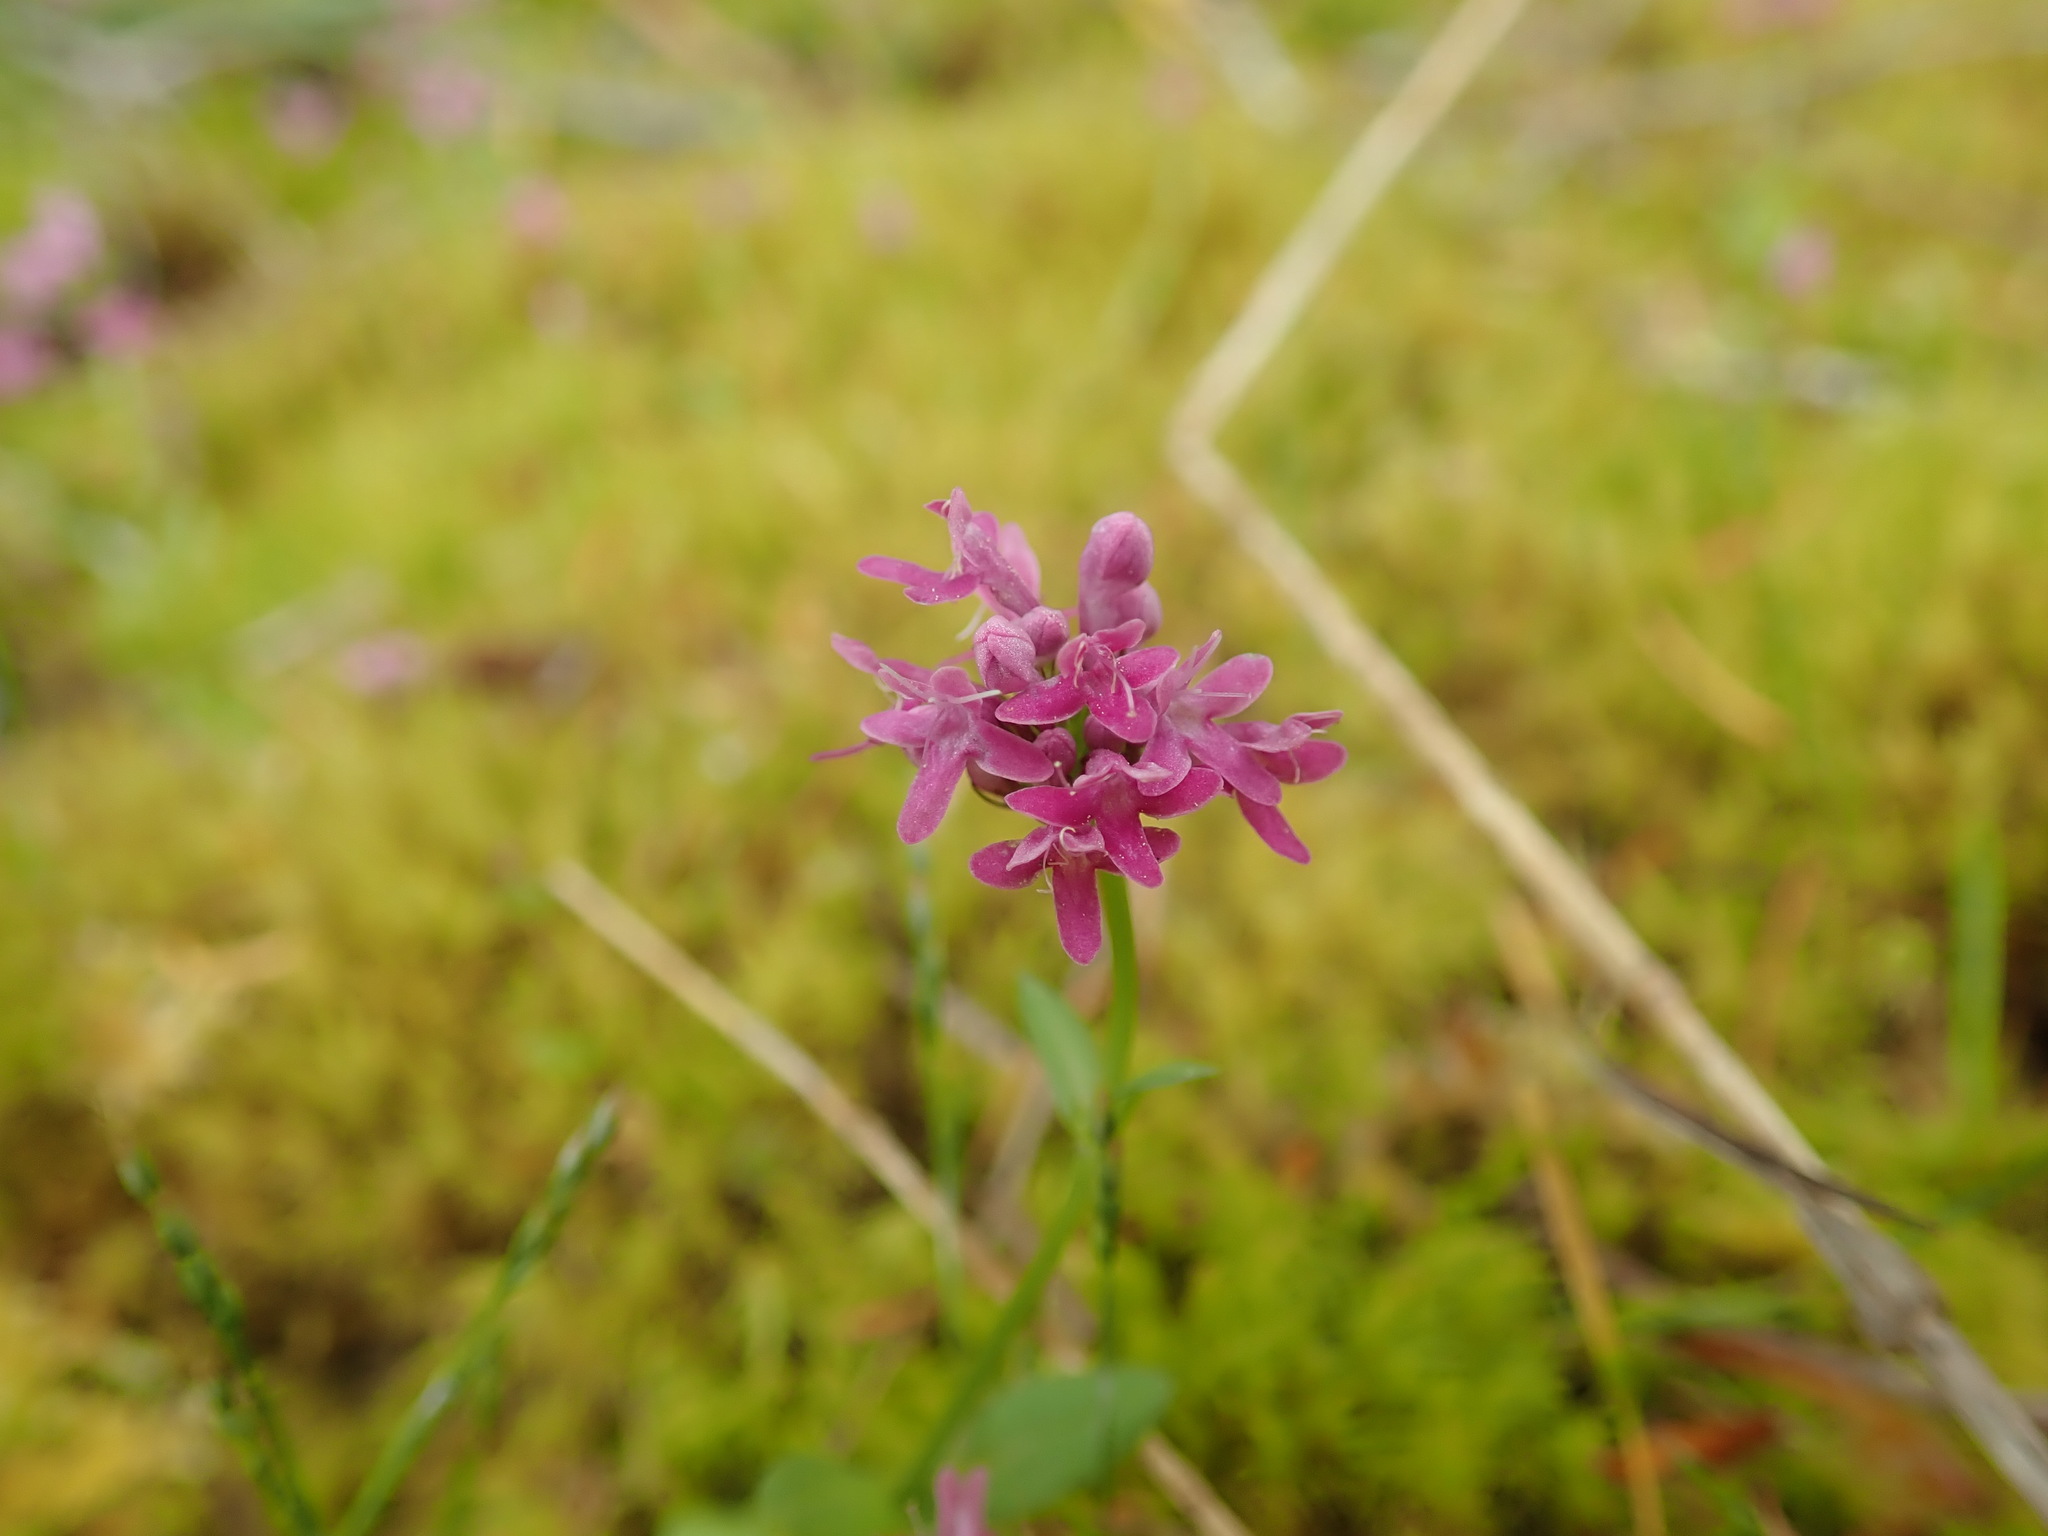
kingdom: Plantae
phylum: Tracheophyta
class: Magnoliopsida
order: Dipsacales
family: Caprifoliaceae
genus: Plectritis
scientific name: Plectritis congesta
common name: Pink plectritis
